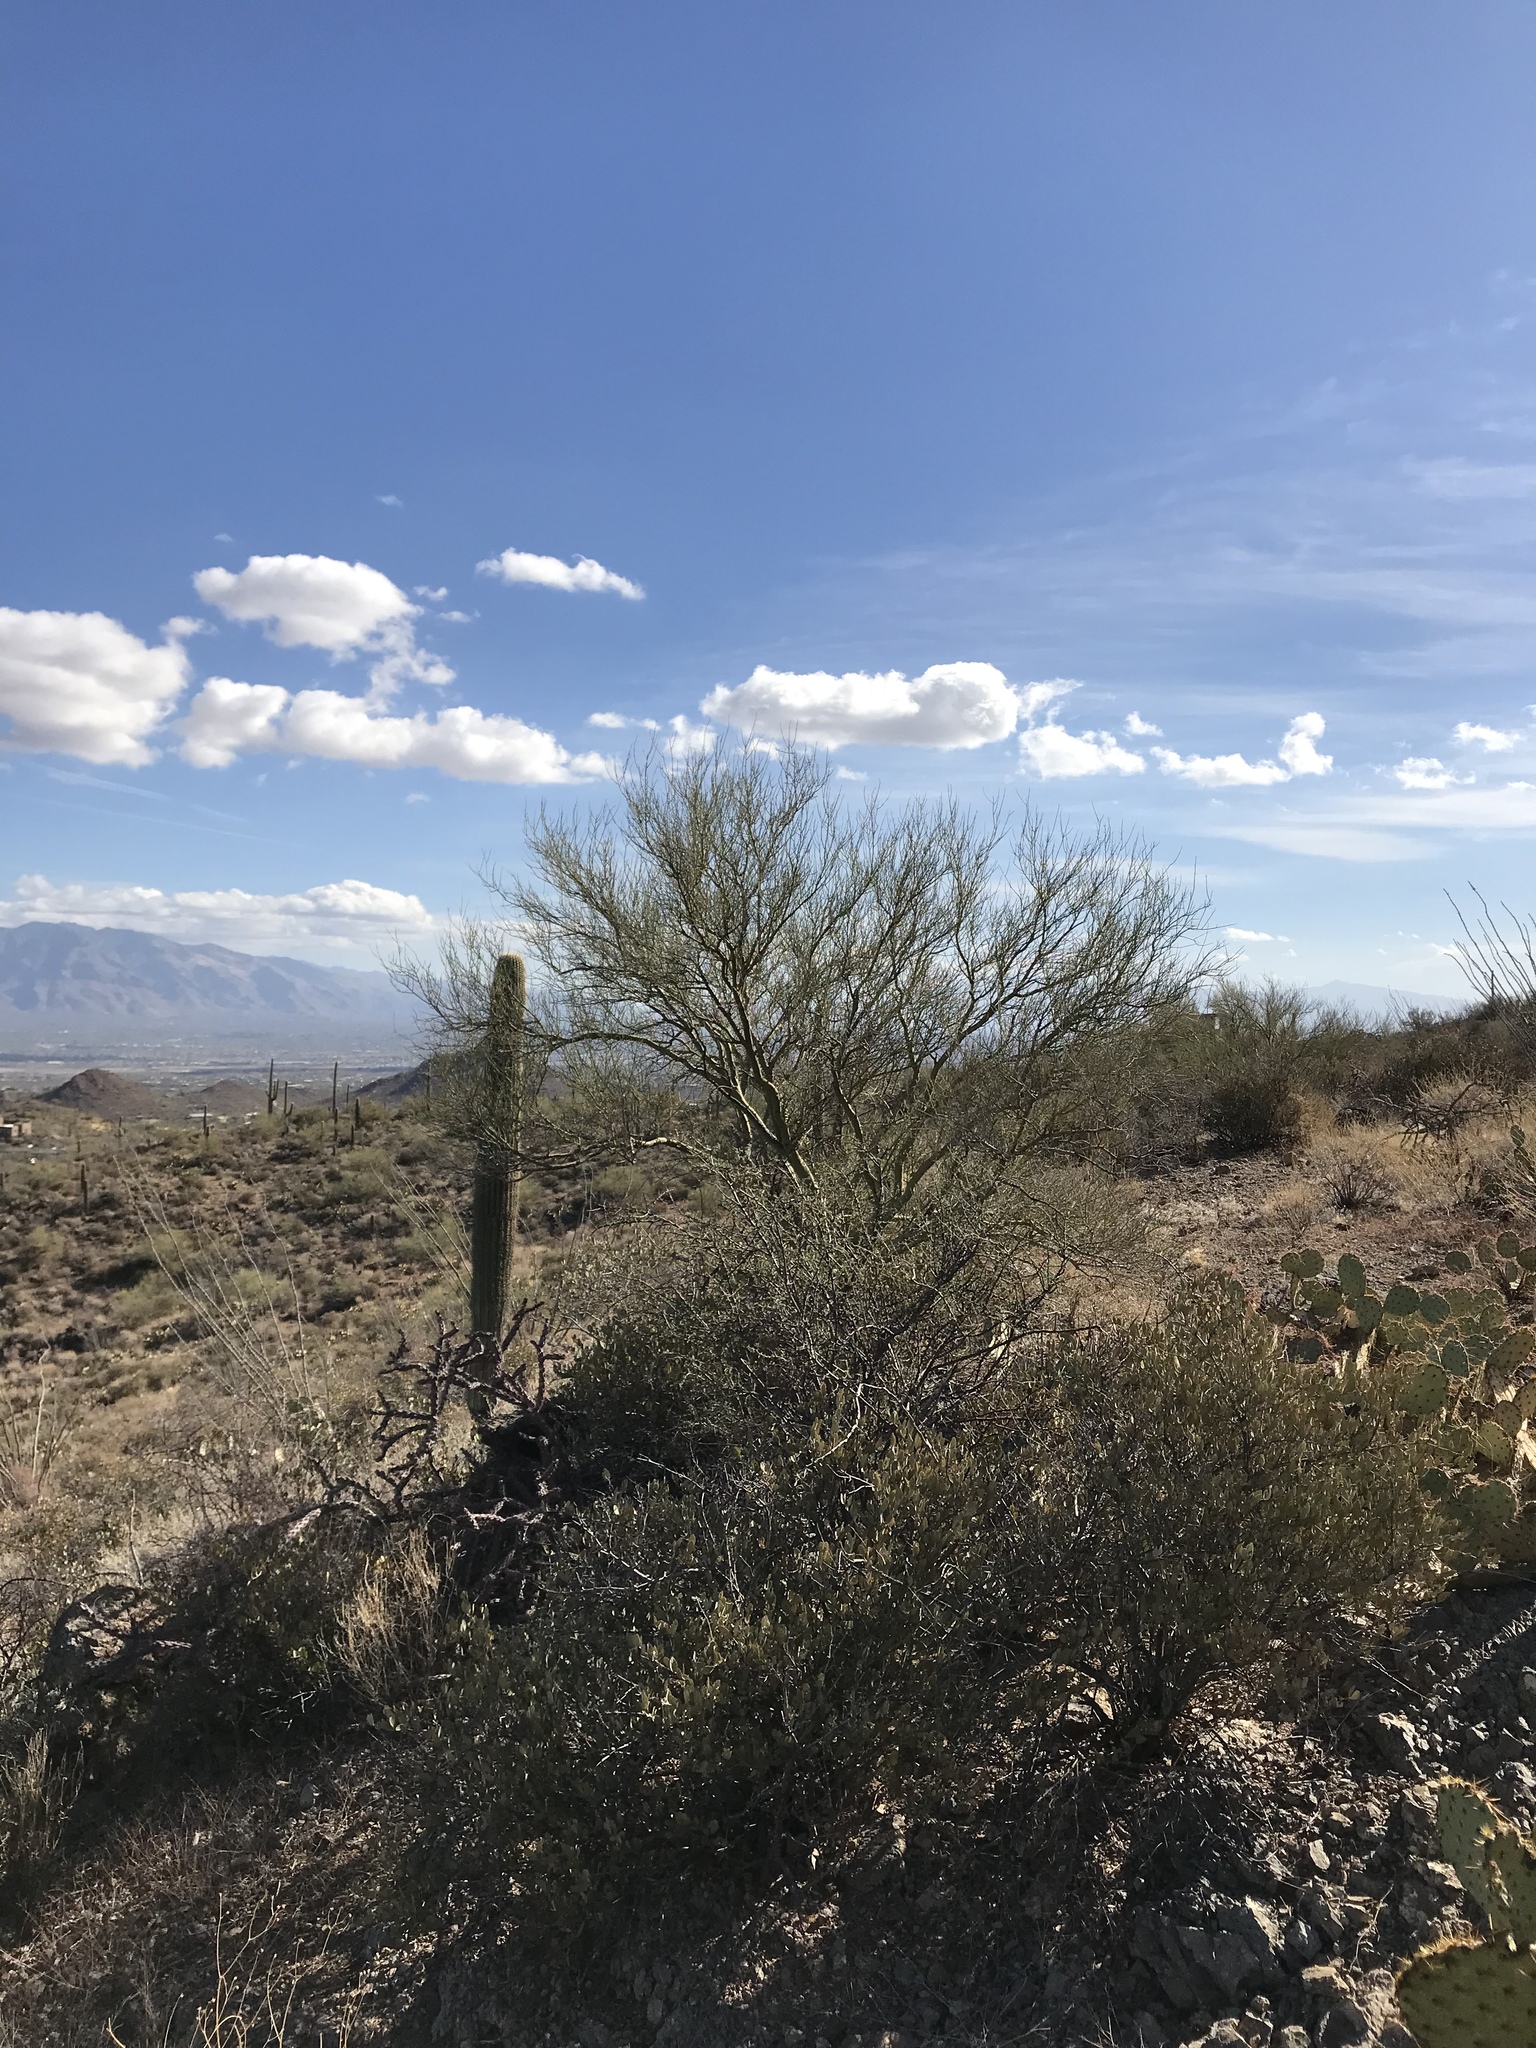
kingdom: Plantae
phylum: Tracheophyta
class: Magnoliopsida
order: Fabales
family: Fabaceae
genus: Parkinsonia
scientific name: Parkinsonia microphylla
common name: Yellow paloverde
